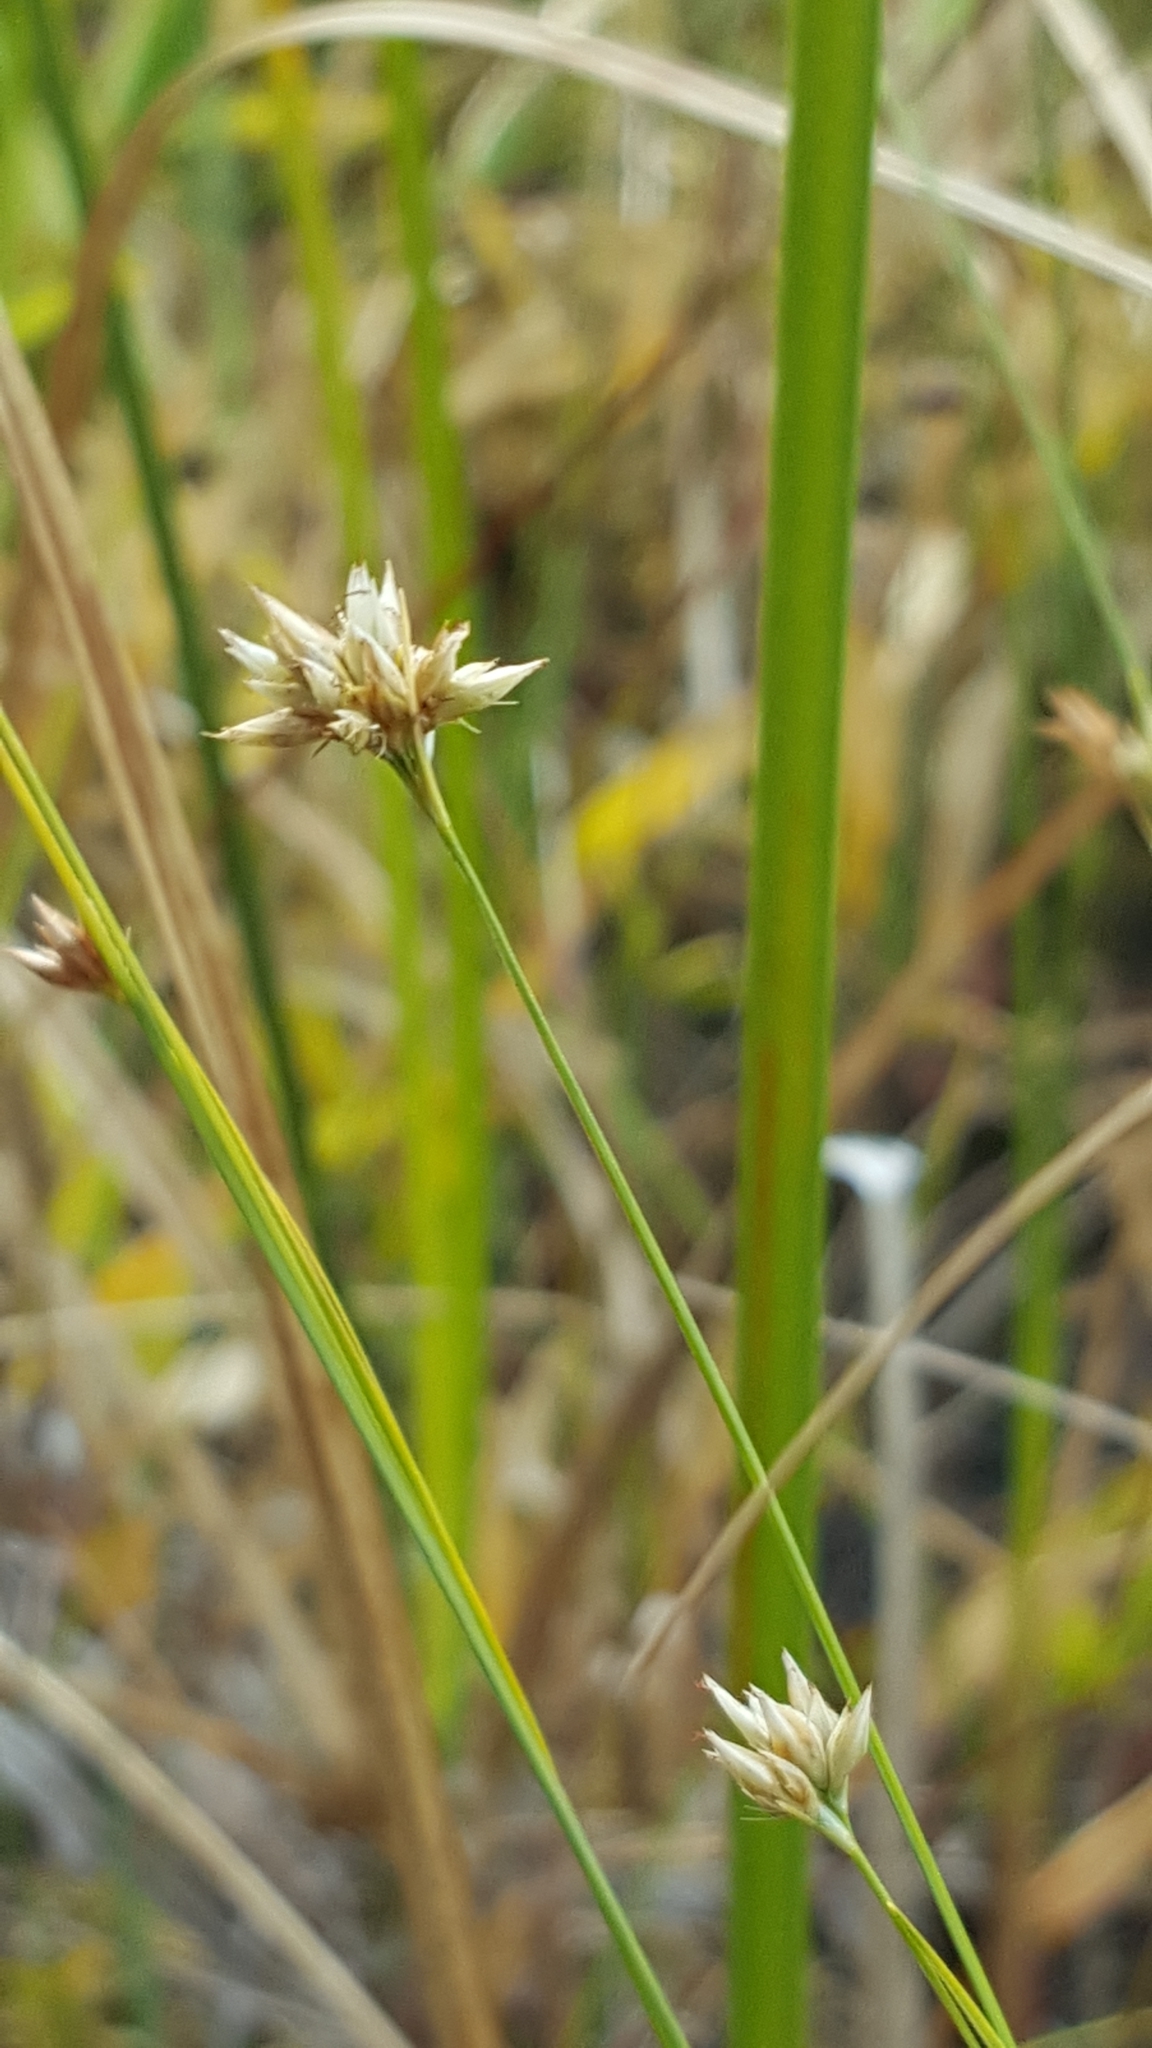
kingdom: Plantae
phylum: Tracheophyta
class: Liliopsida
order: Poales
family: Cyperaceae
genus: Rhynchospora
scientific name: Rhynchospora alba
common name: White beak-sedge
